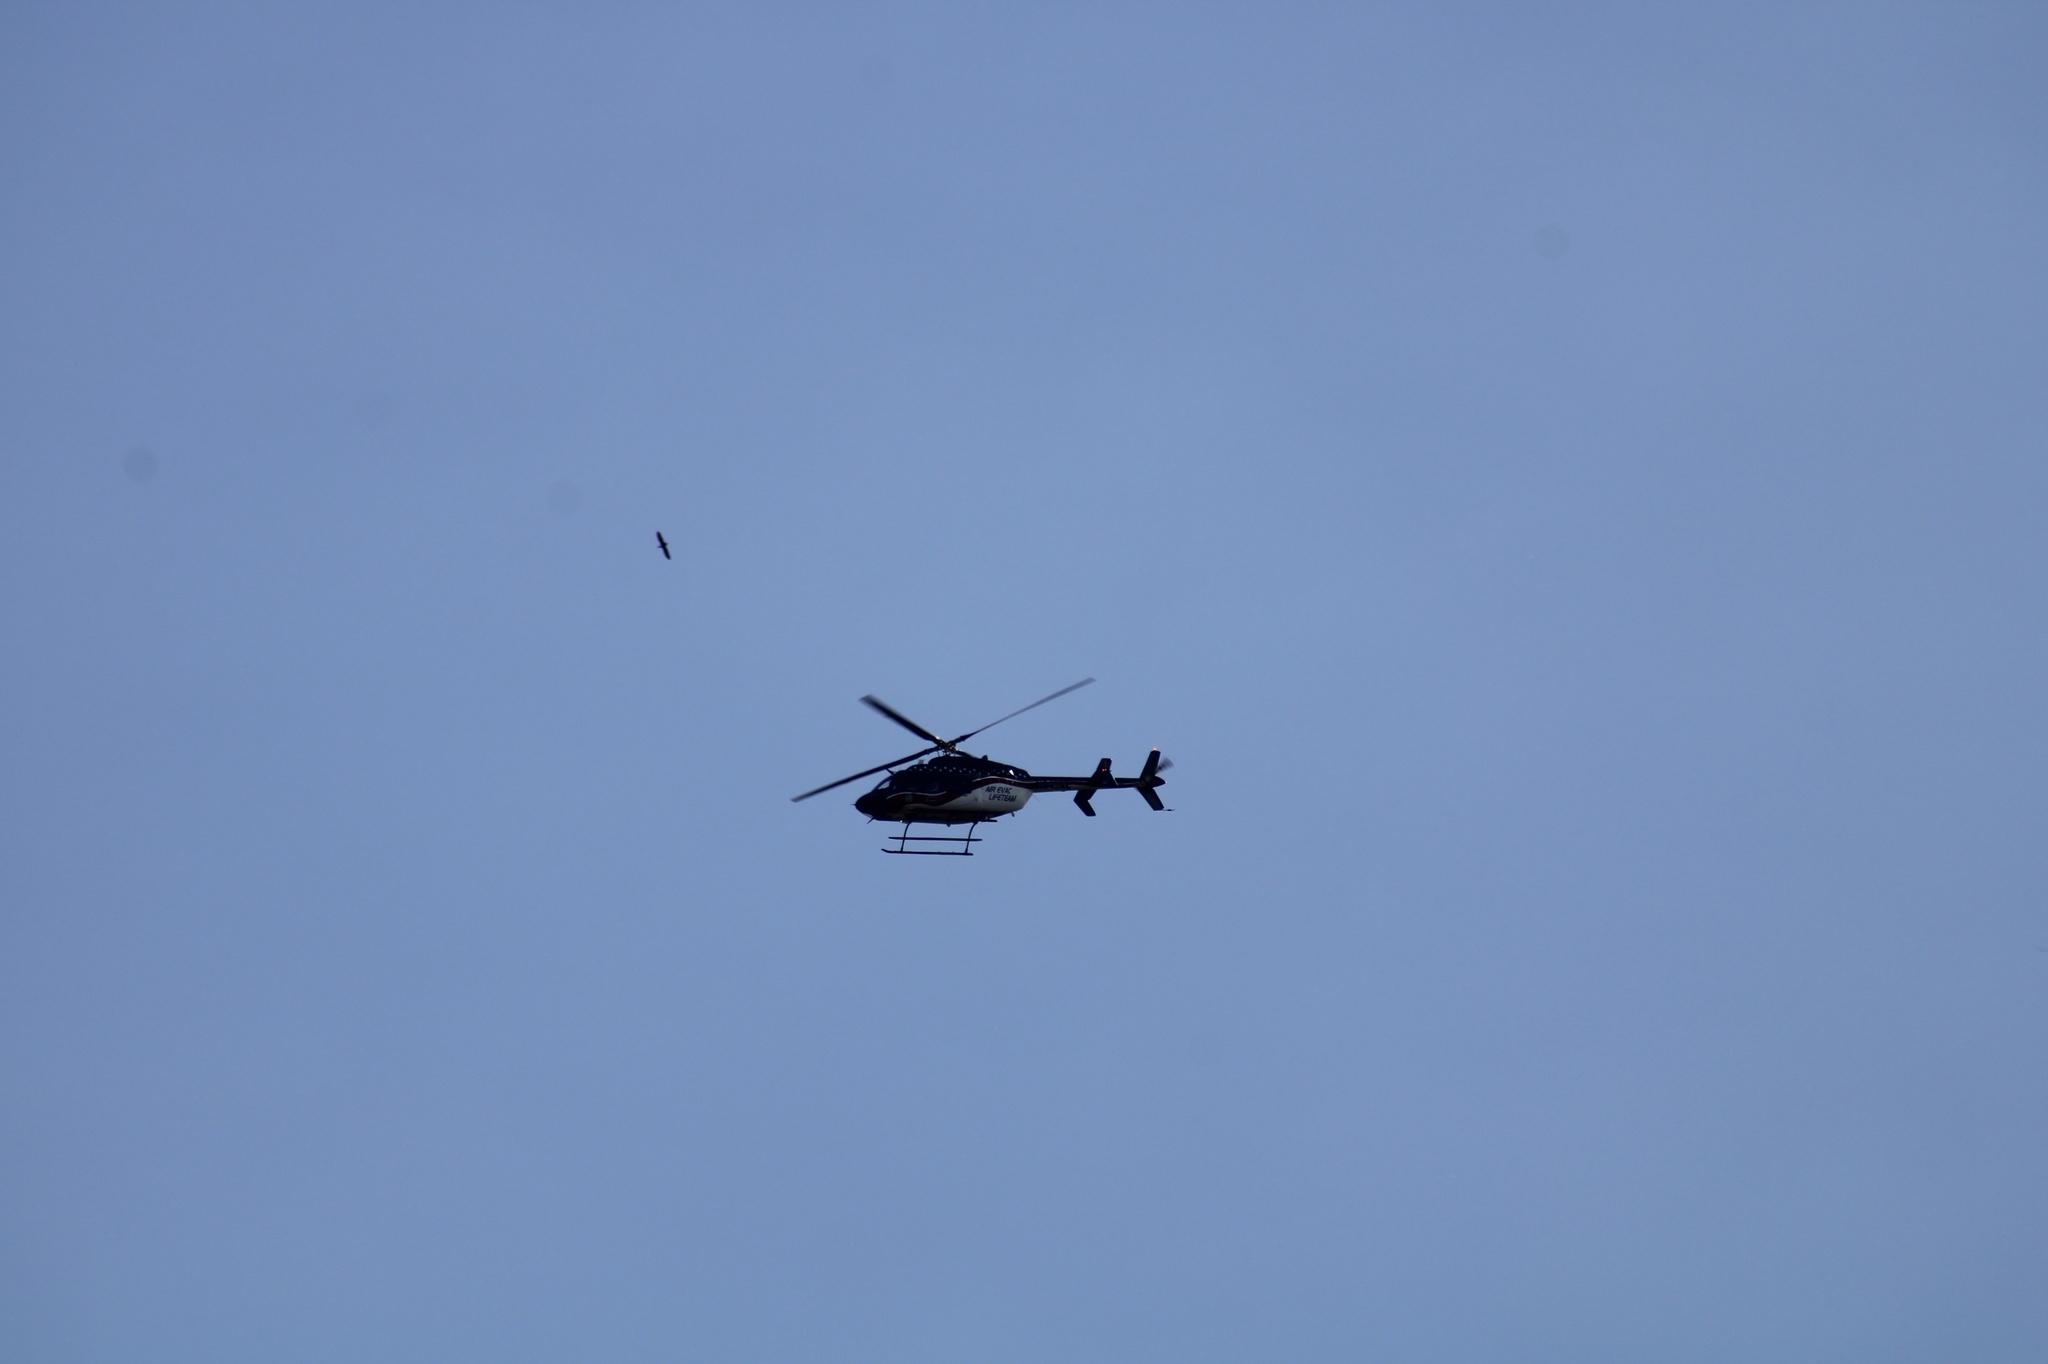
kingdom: Animalia
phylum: Chordata
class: Aves
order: Accipitriformes
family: Cathartidae
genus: Cathartes
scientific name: Cathartes aura
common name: Turkey vulture
